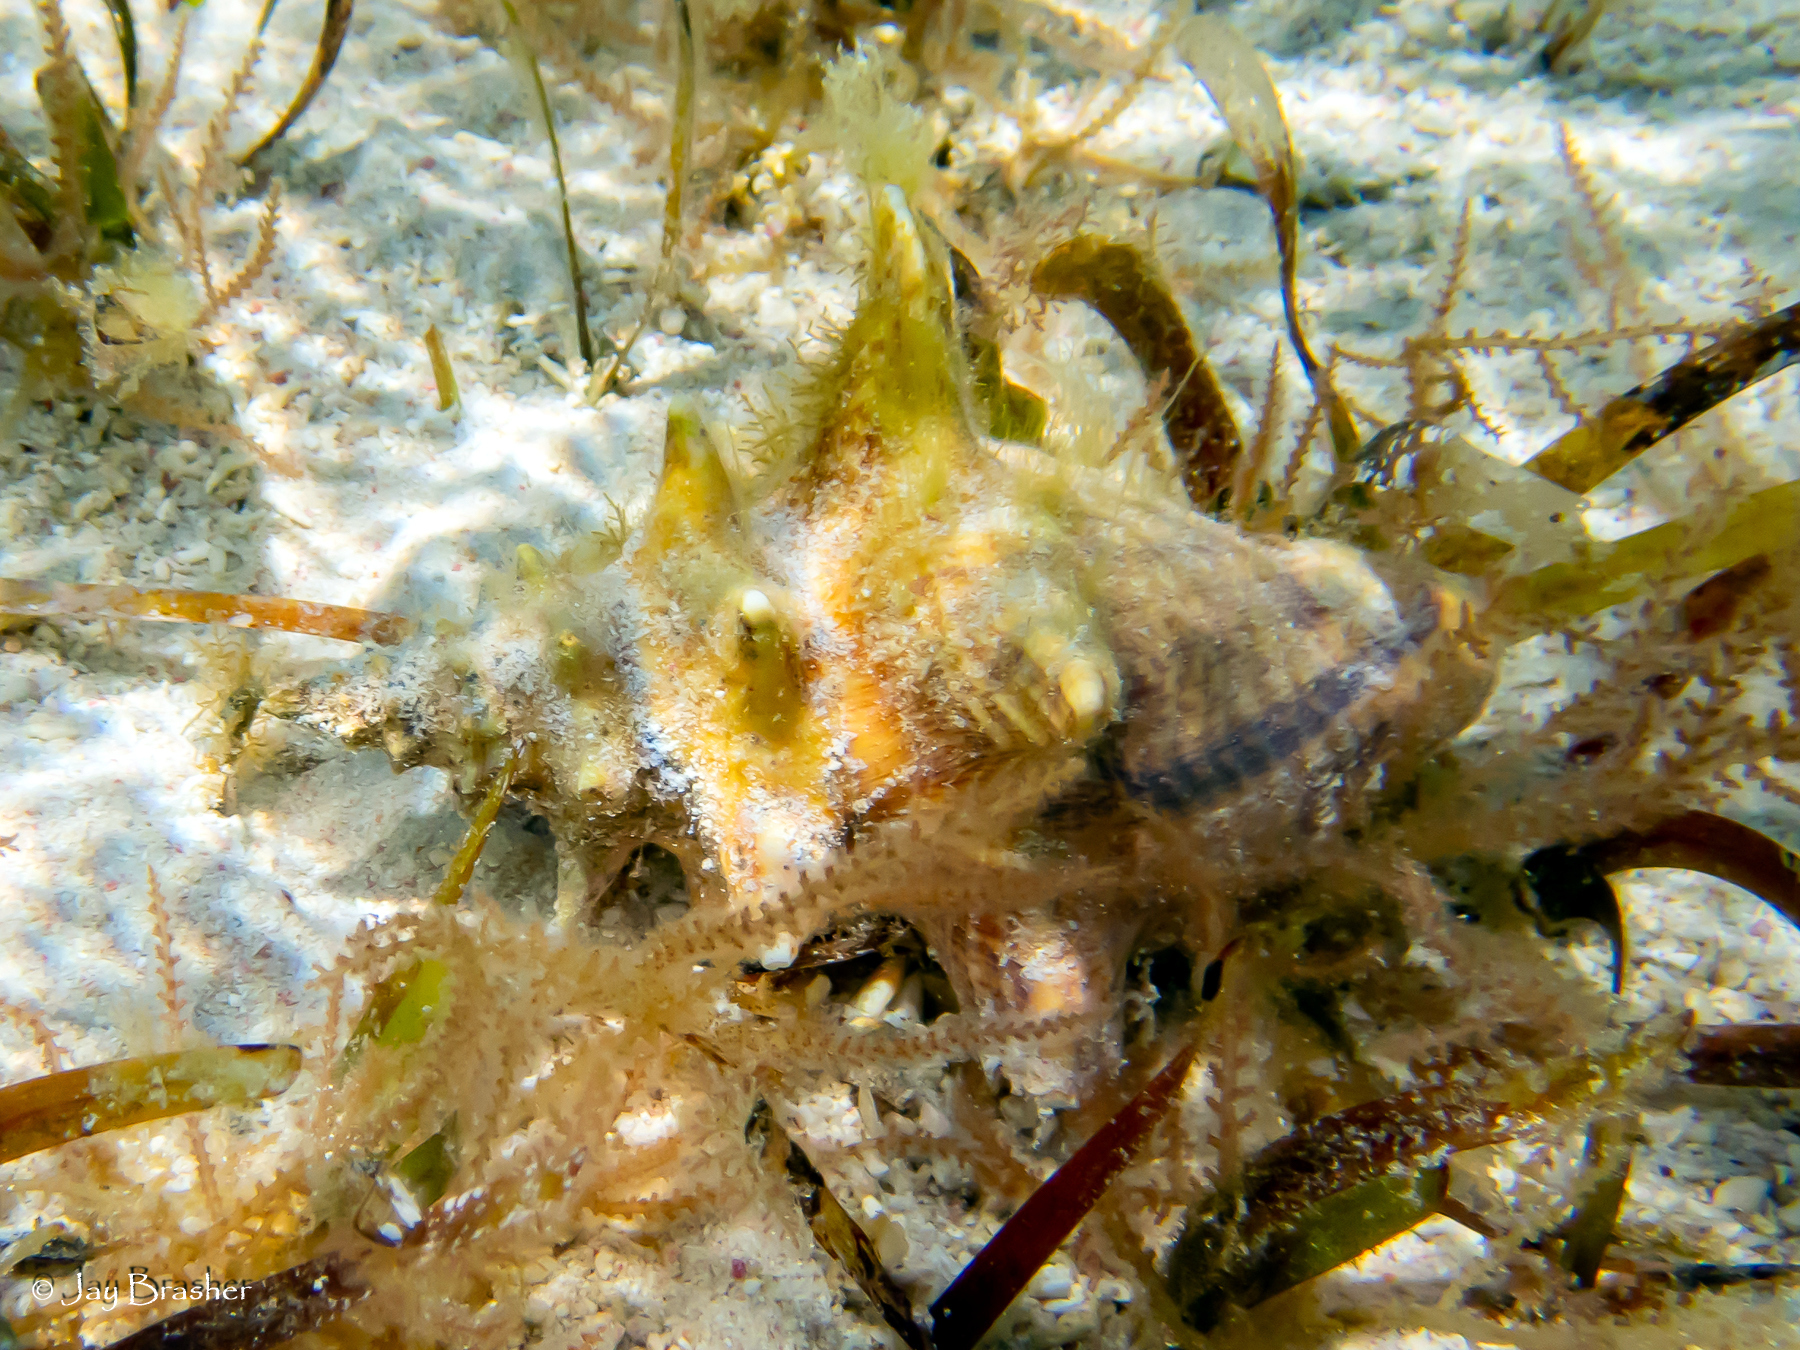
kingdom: Animalia
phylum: Mollusca
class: Gastropoda
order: Littorinimorpha
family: Strombidae
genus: Aliger
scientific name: Aliger gigas
